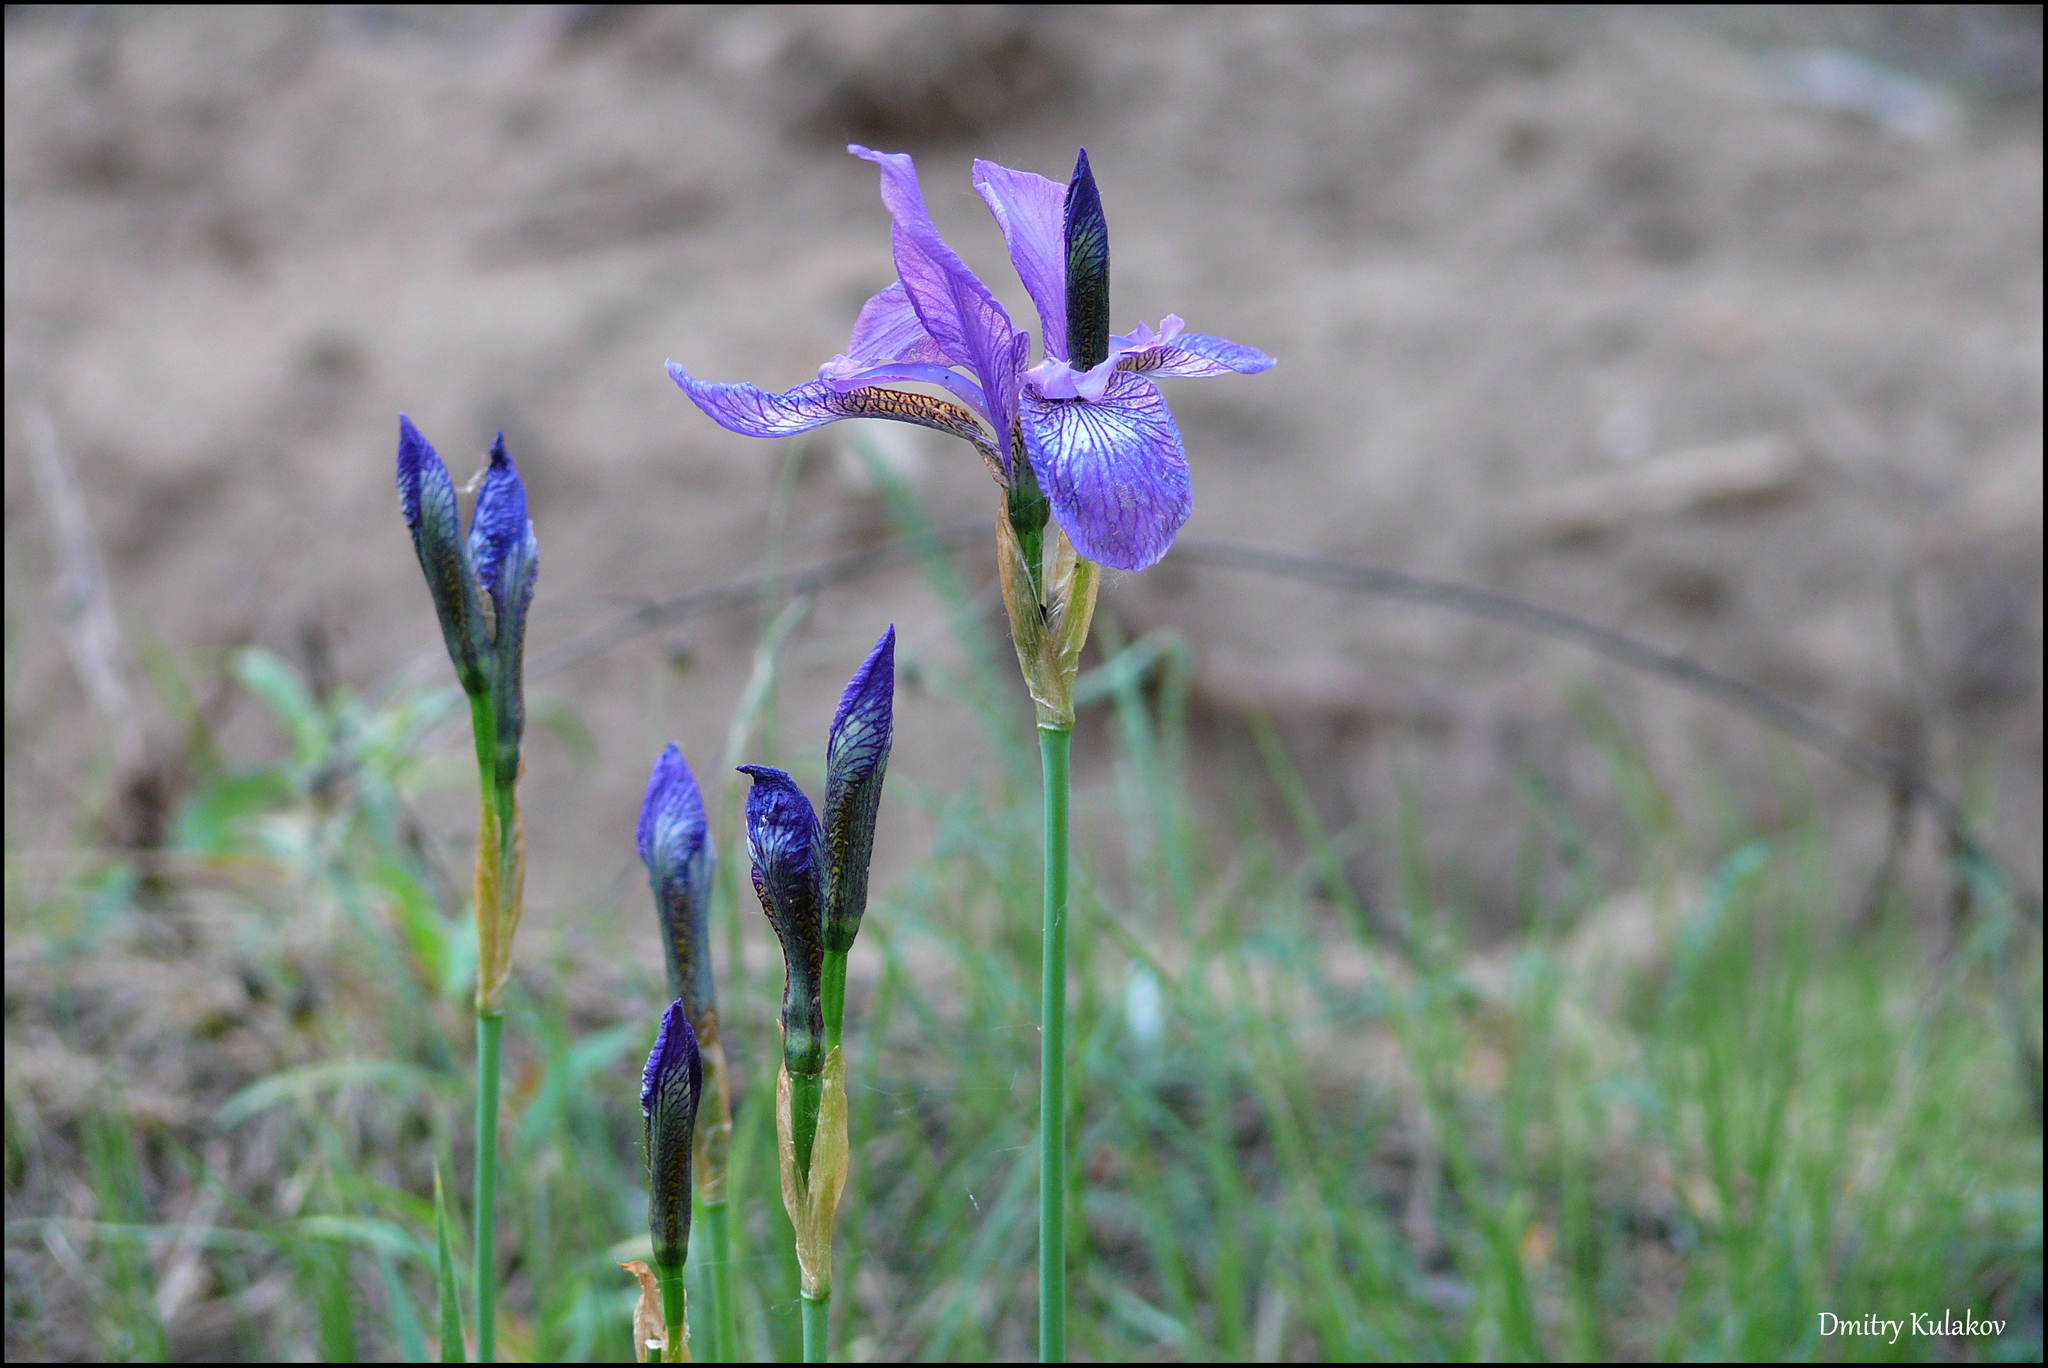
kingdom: Plantae
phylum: Tracheophyta
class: Liliopsida
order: Asparagales
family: Iridaceae
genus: Iris
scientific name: Iris sibirica
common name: Siberian iris
